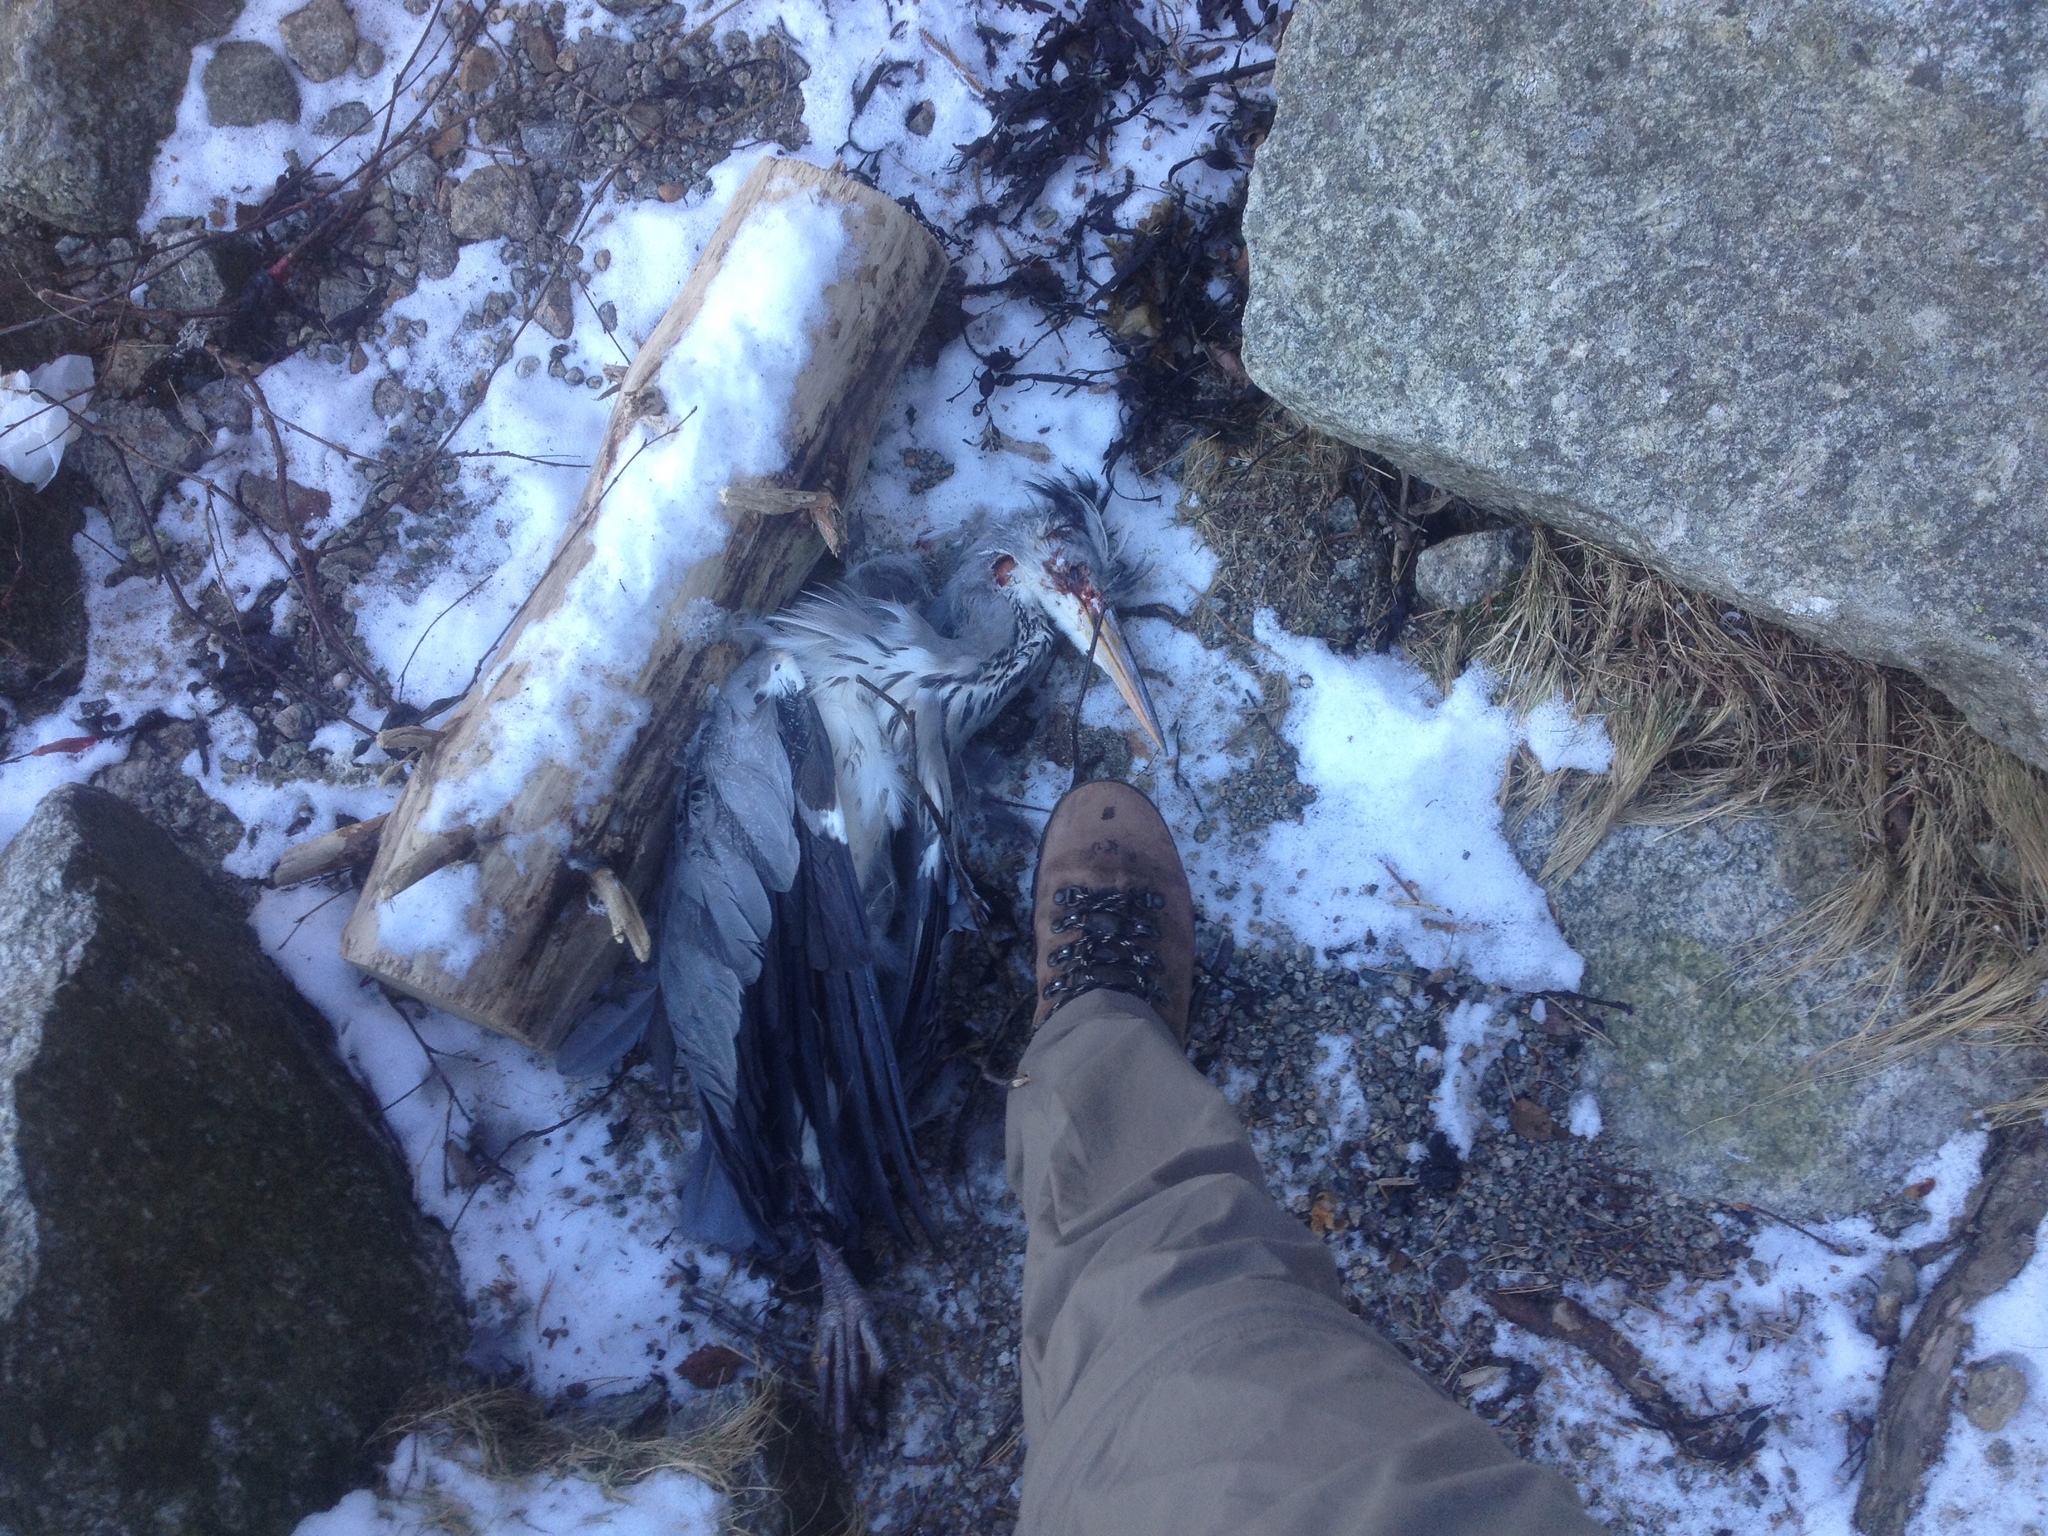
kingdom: Animalia
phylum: Chordata
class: Aves
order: Pelecaniformes
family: Ardeidae
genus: Ardea
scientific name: Ardea cinerea
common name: Grey heron
